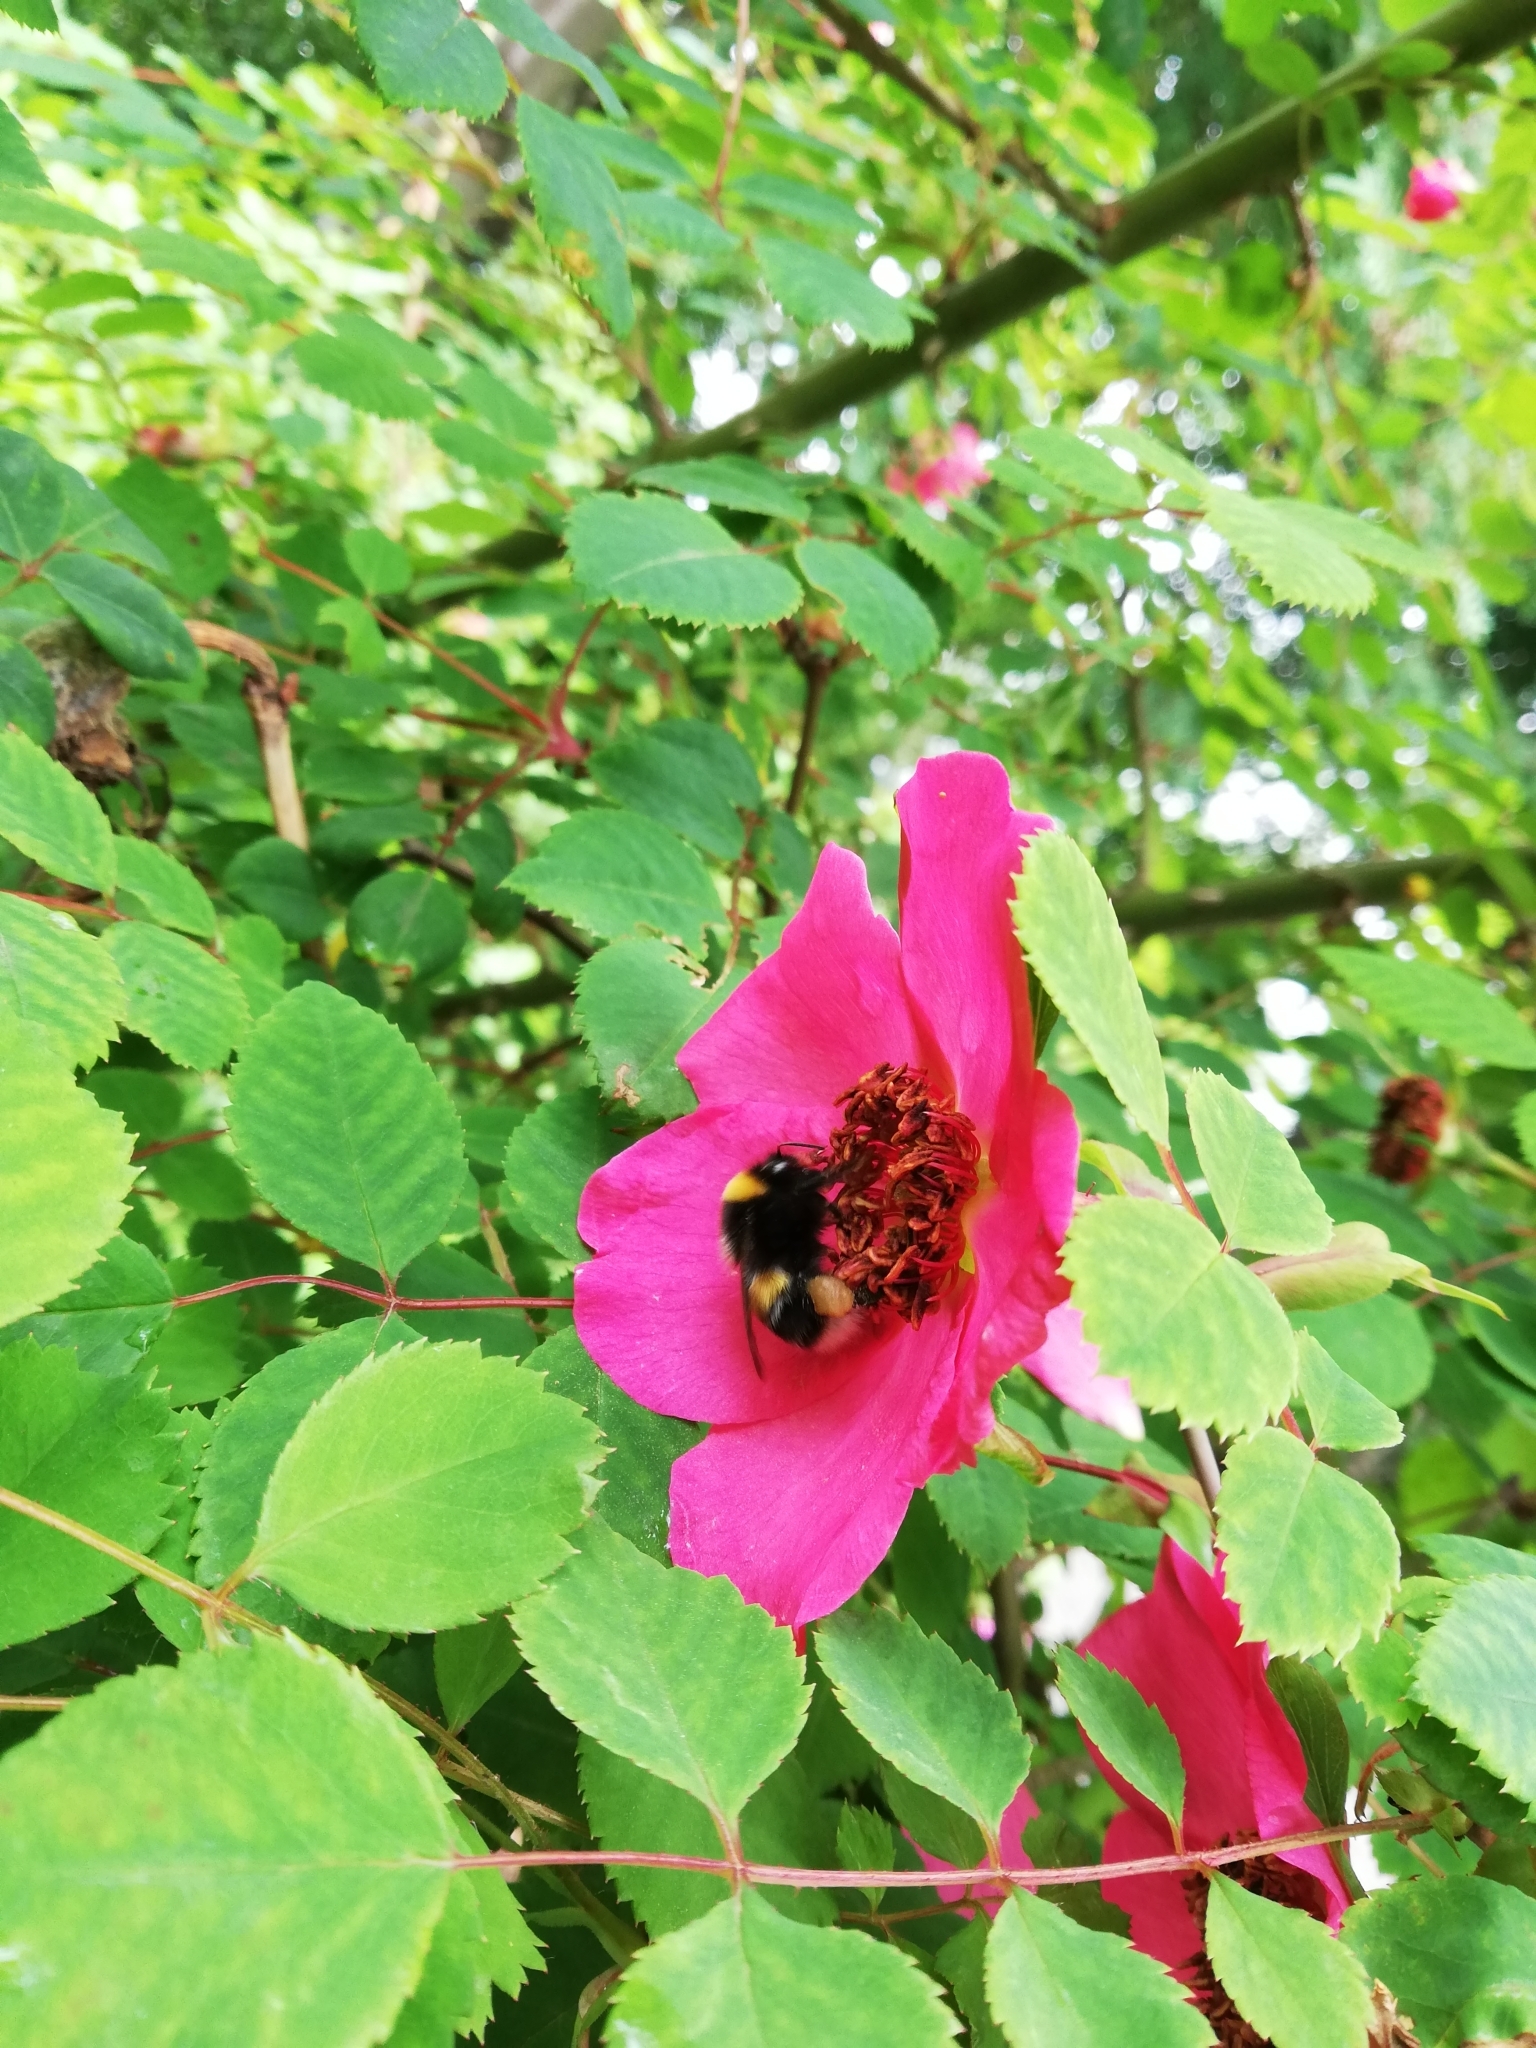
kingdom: Animalia
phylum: Arthropoda
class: Insecta
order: Hymenoptera
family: Apidae
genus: Bombus
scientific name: Bombus lucorum
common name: White-tailed bumblebee
